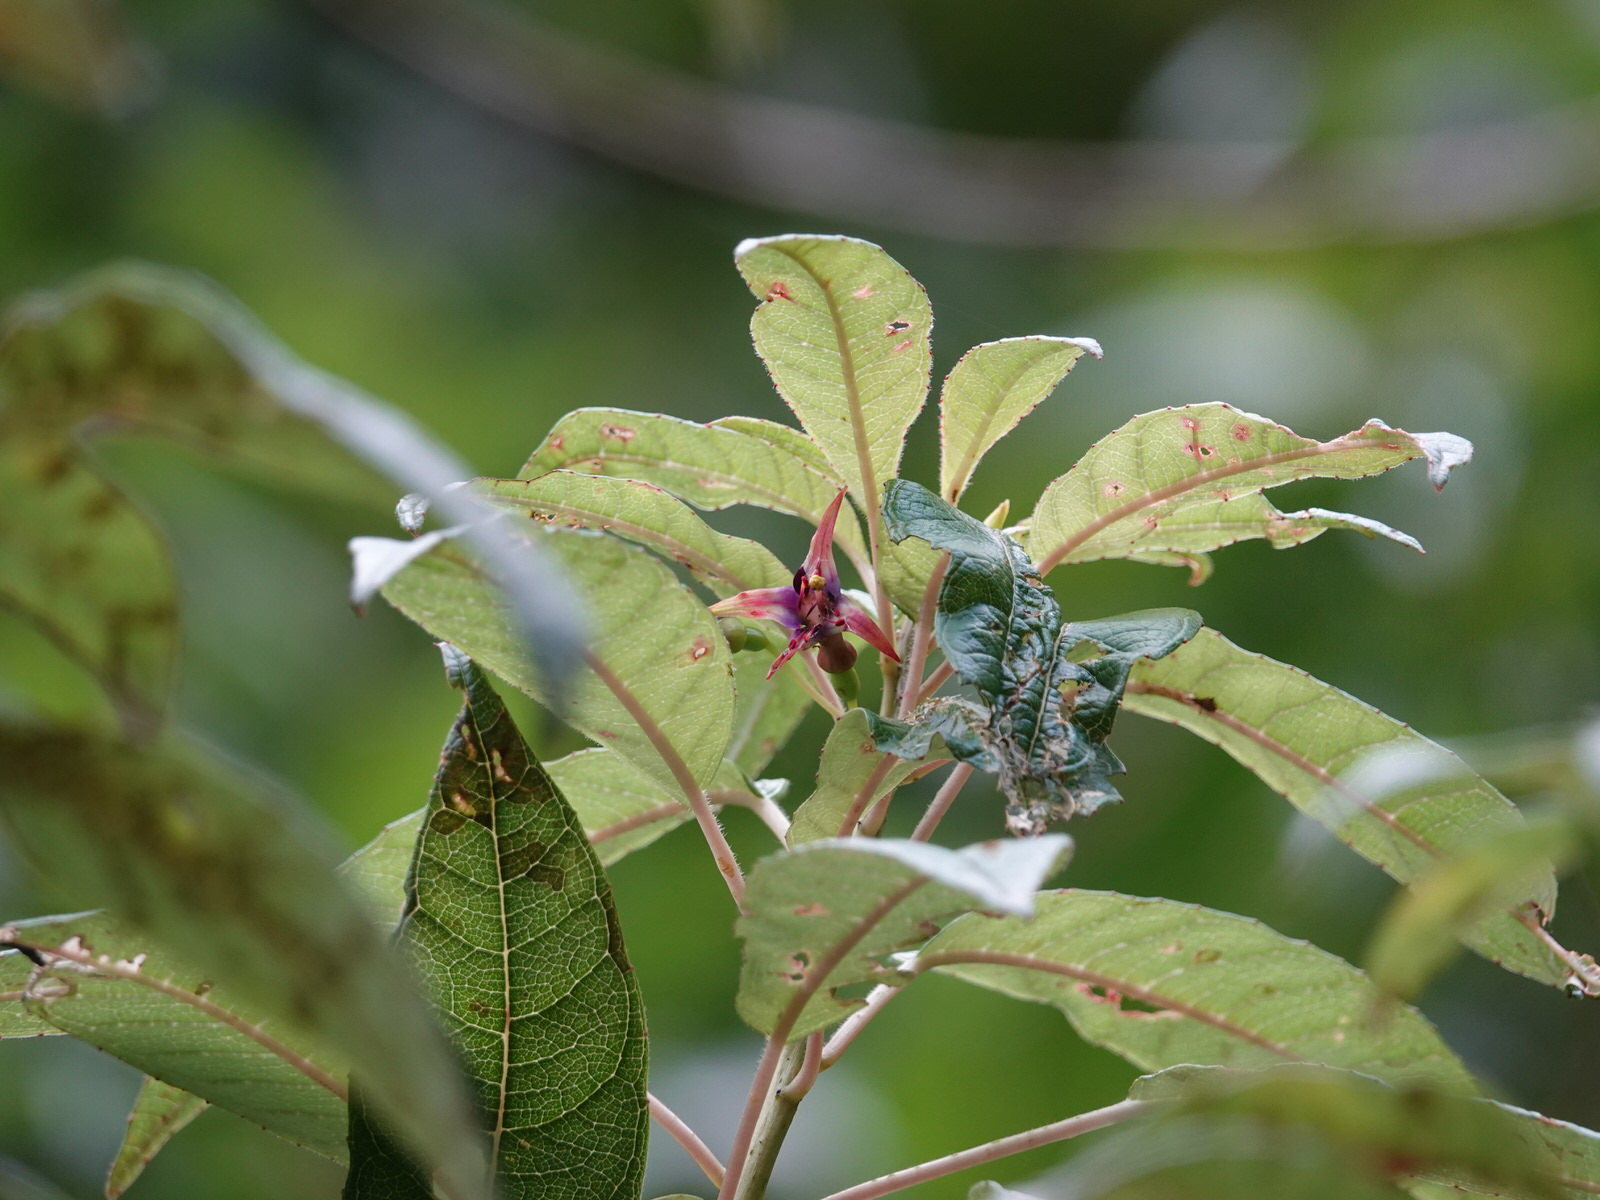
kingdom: Plantae
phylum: Tracheophyta
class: Magnoliopsida
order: Myrtales
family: Onagraceae
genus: Fuchsia
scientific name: Fuchsia excorticata
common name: Tree fuchsia
